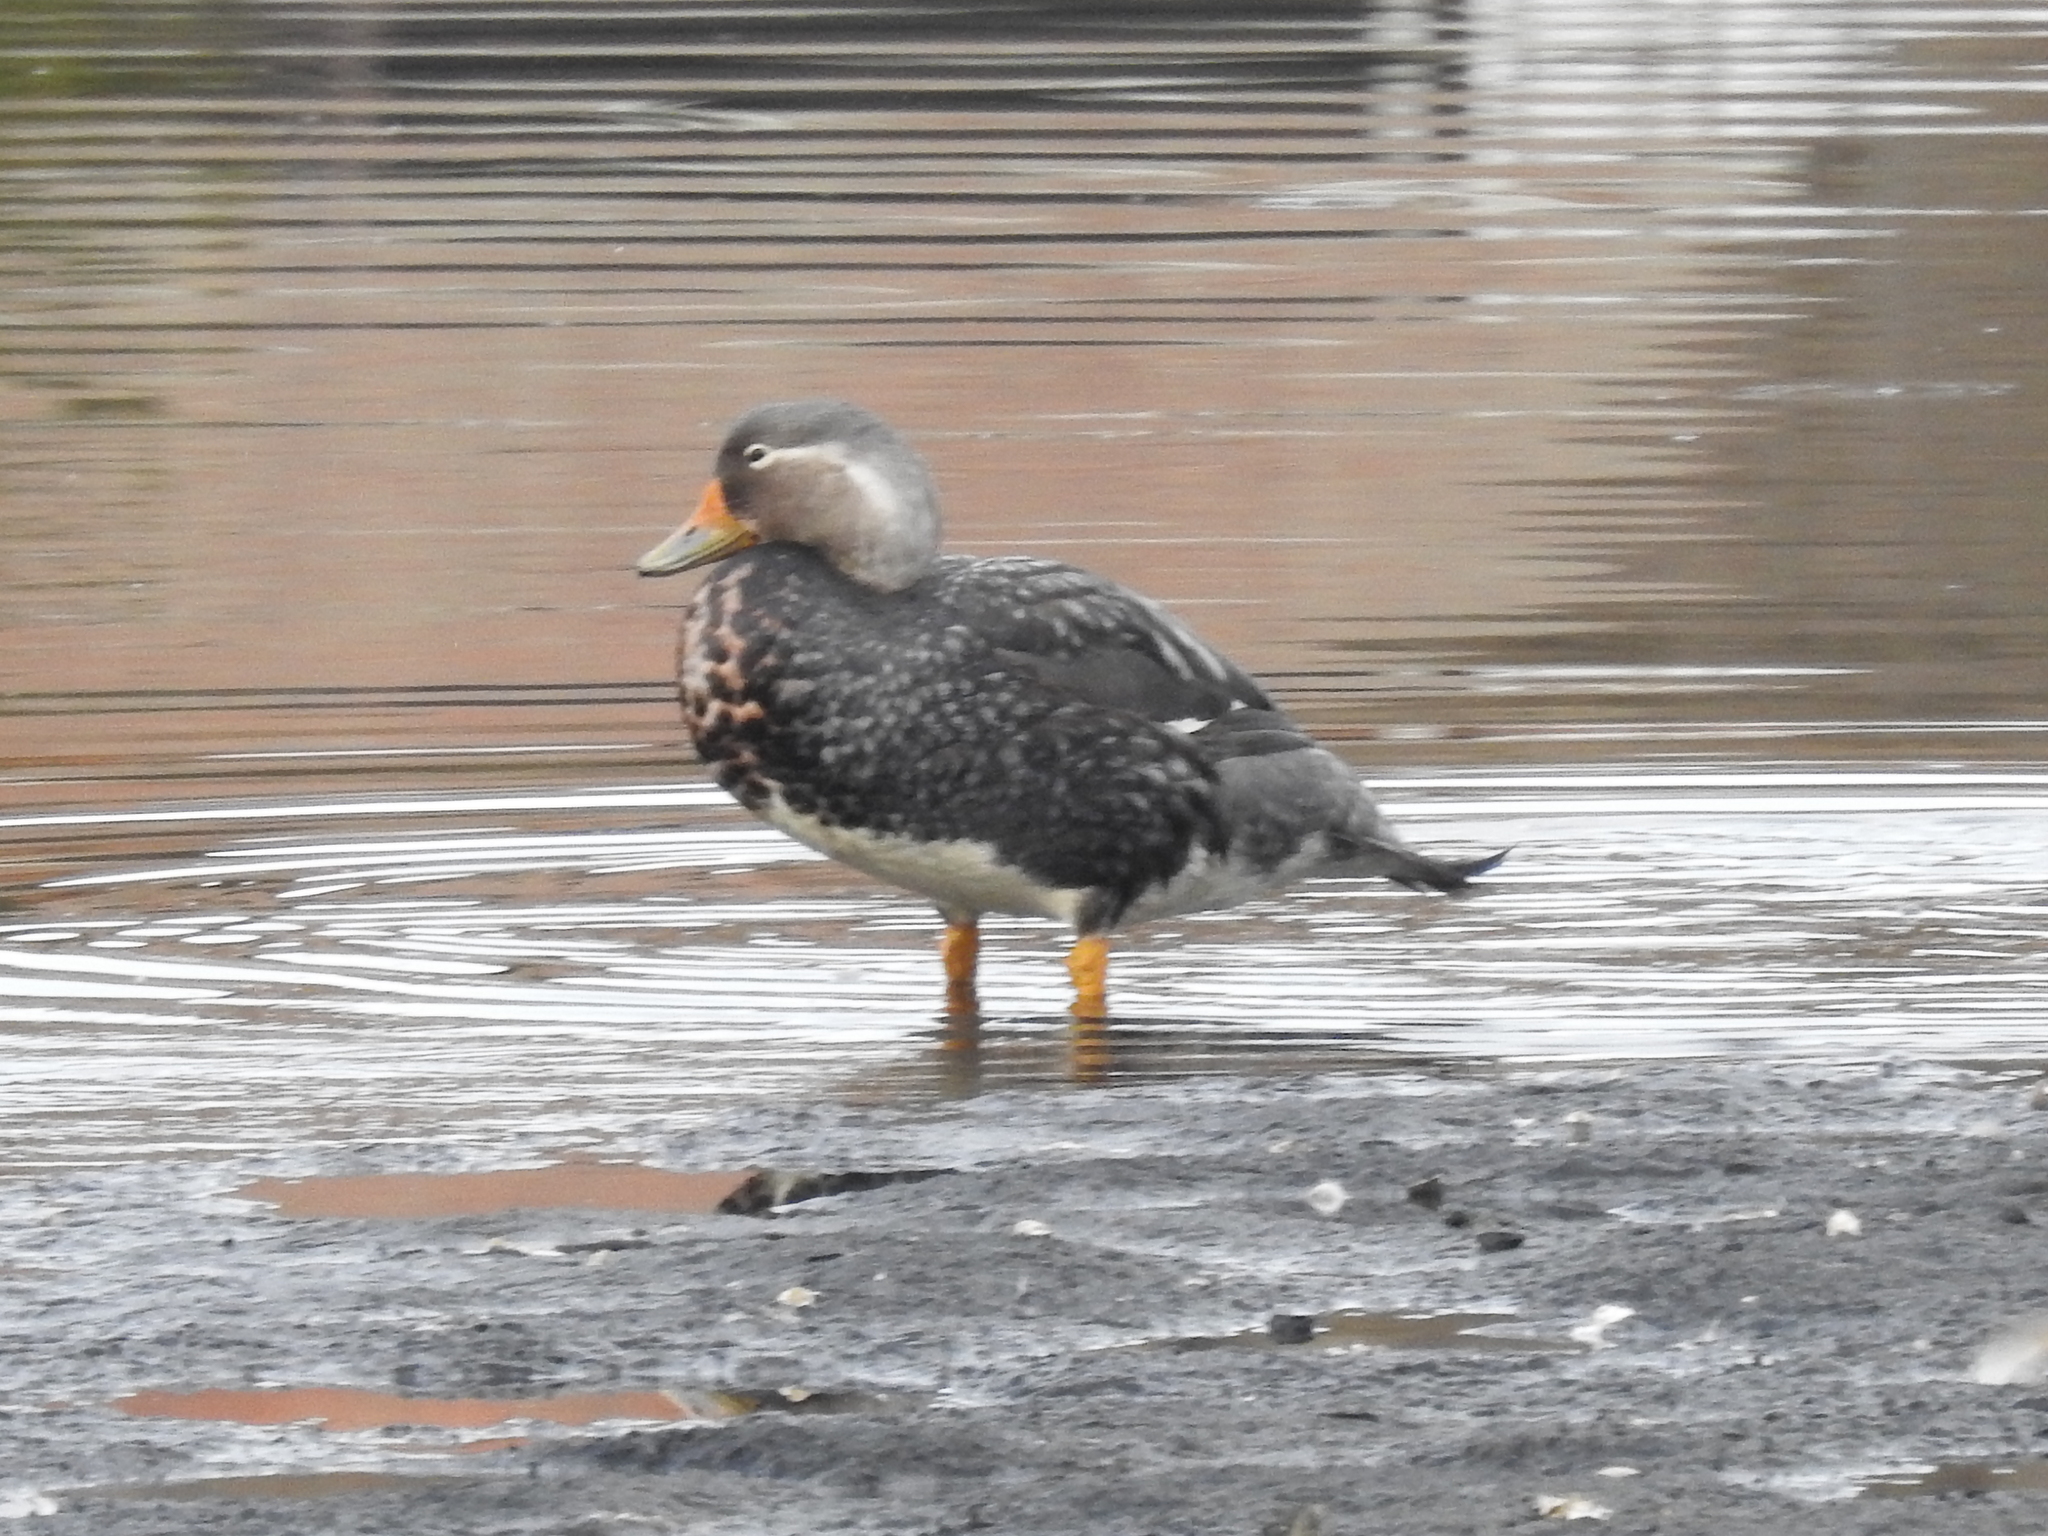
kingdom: Animalia
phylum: Chordata
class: Aves
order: Anseriformes
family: Anatidae
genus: Tachyeres
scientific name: Tachyeres patachonicus
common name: Flying steamer duck
